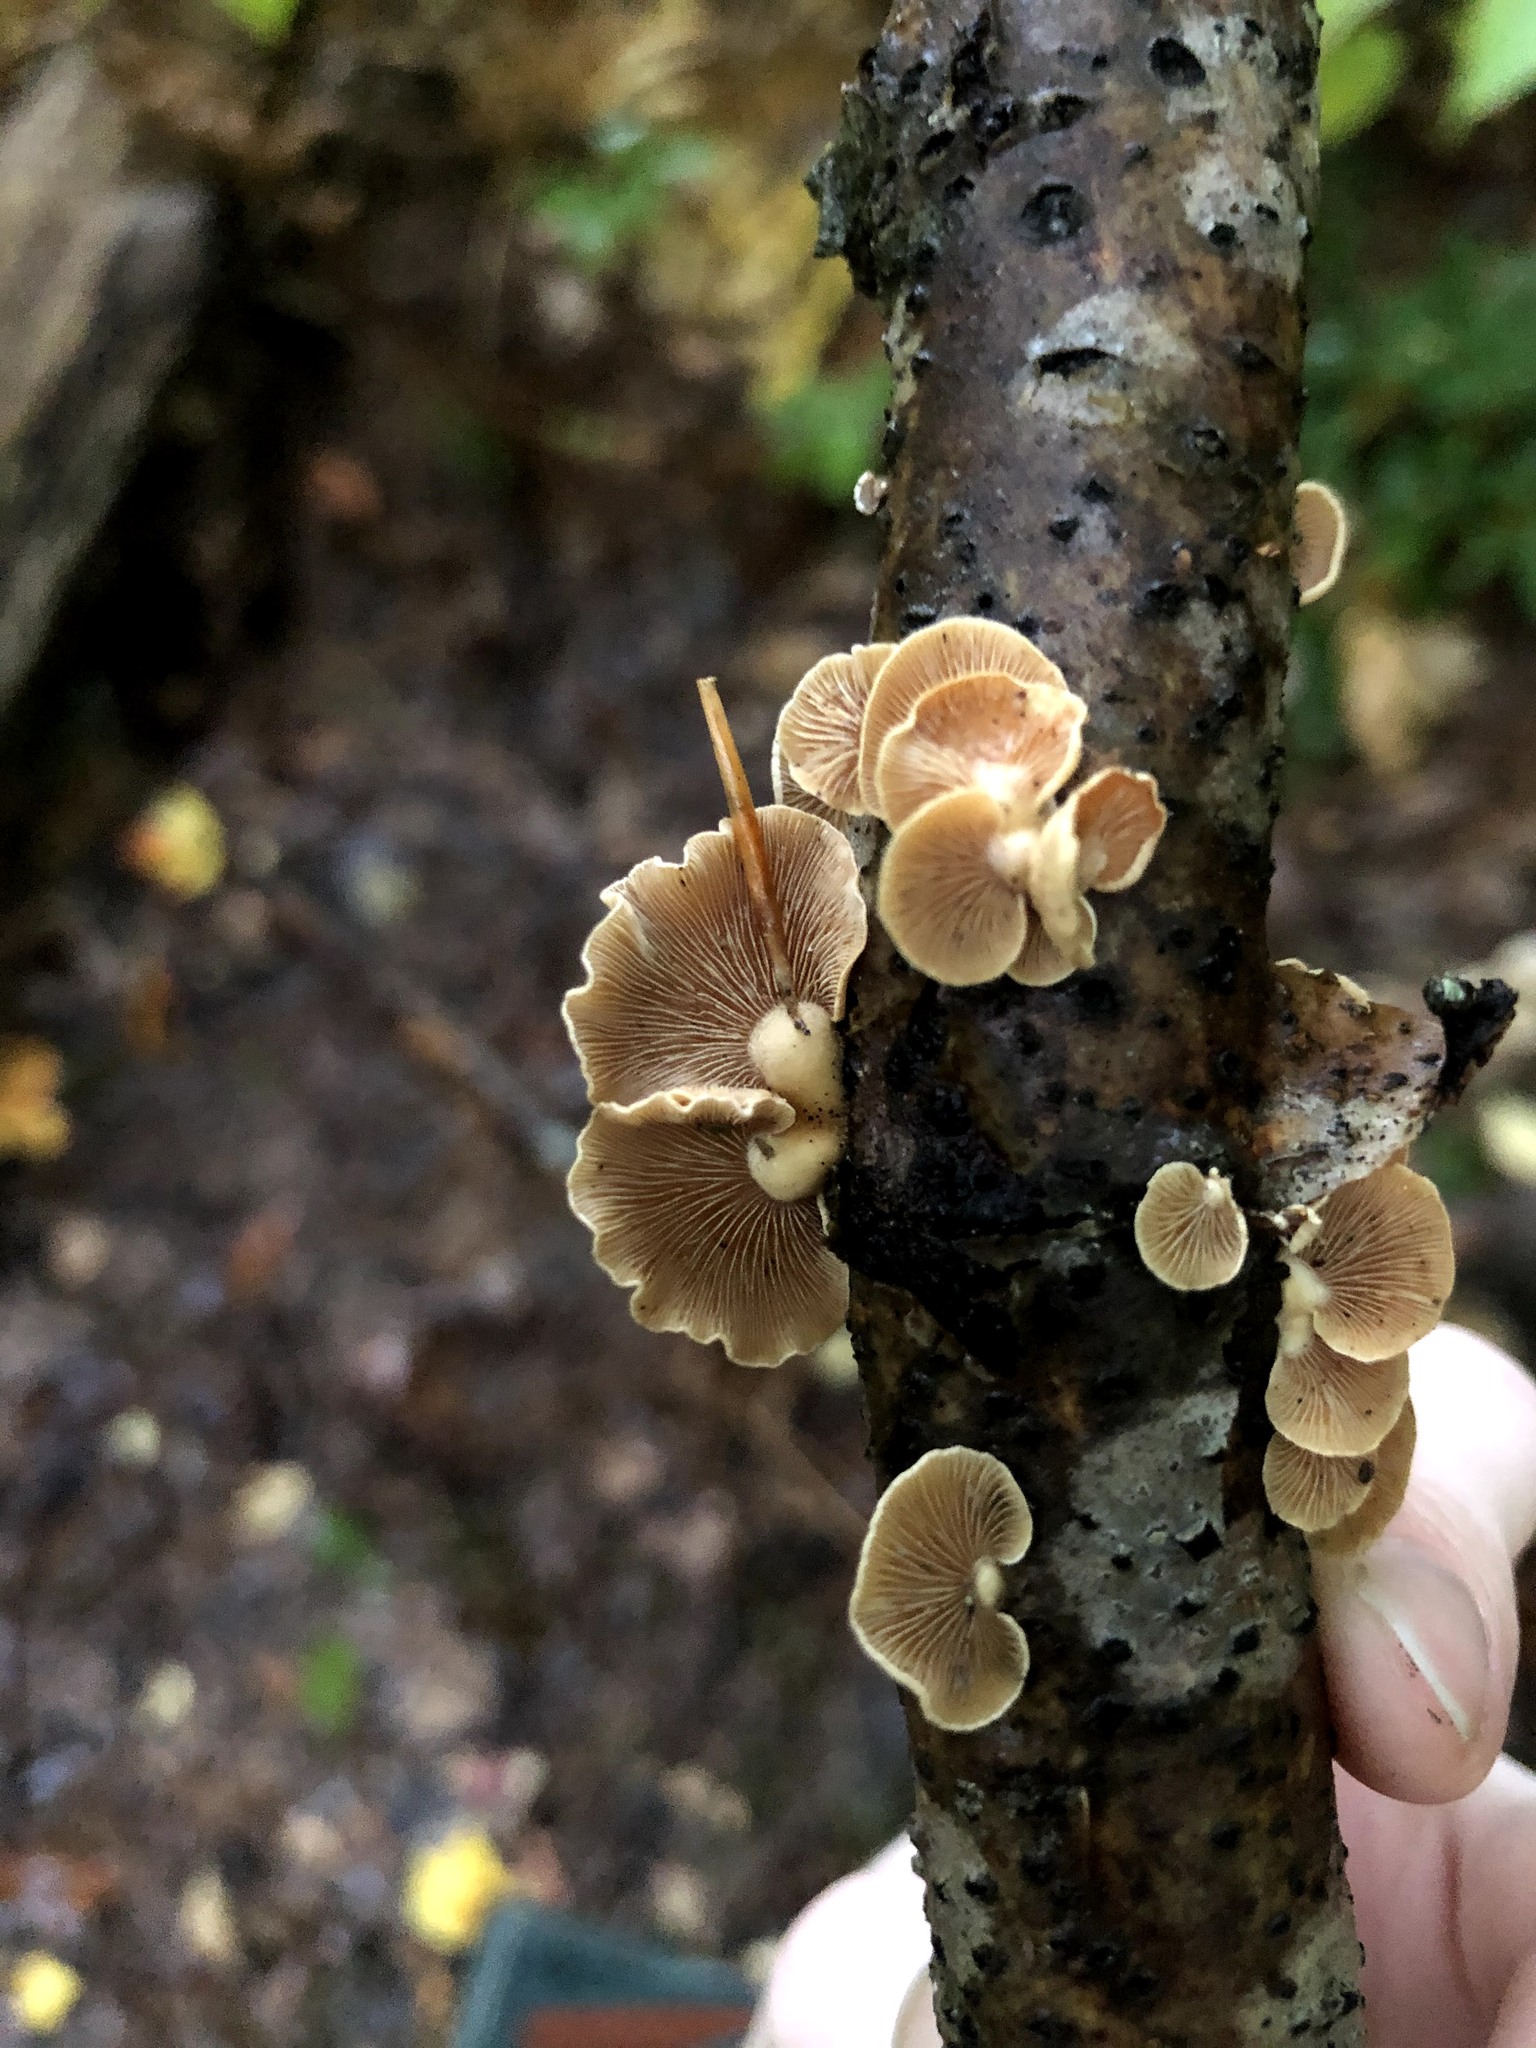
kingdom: Fungi
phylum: Basidiomycota
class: Agaricomycetes
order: Agaricales
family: Mycenaceae
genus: Panellus
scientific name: Panellus stipticus
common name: Bitter oysterling
